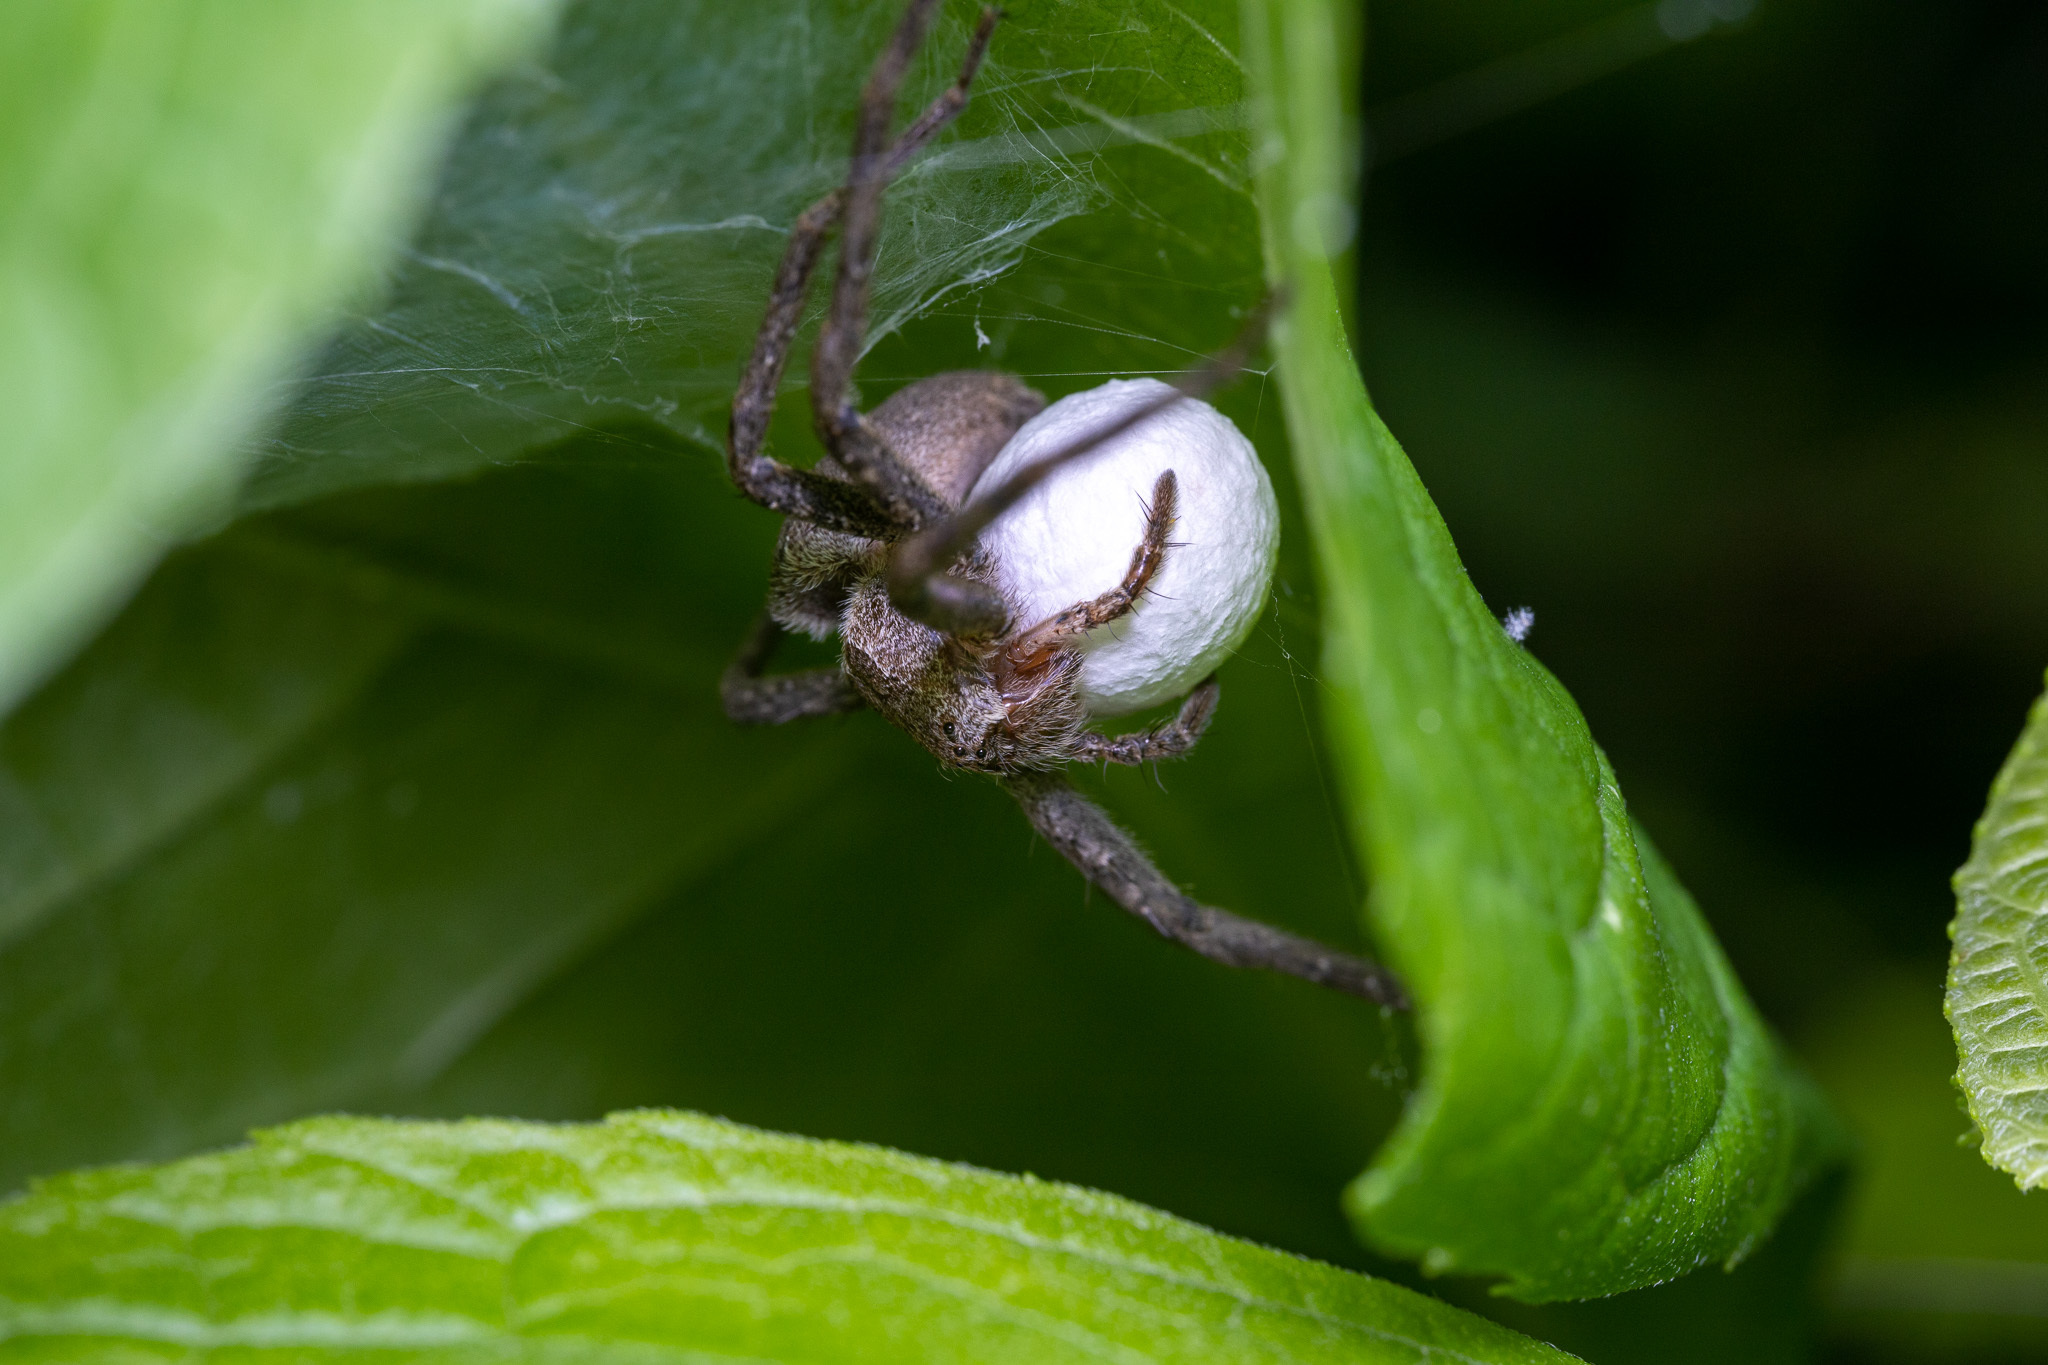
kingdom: Animalia
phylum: Arthropoda
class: Arachnida
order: Araneae
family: Pisauridae
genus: Pisaurina
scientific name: Pisaurina mira
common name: American nursery web spider
